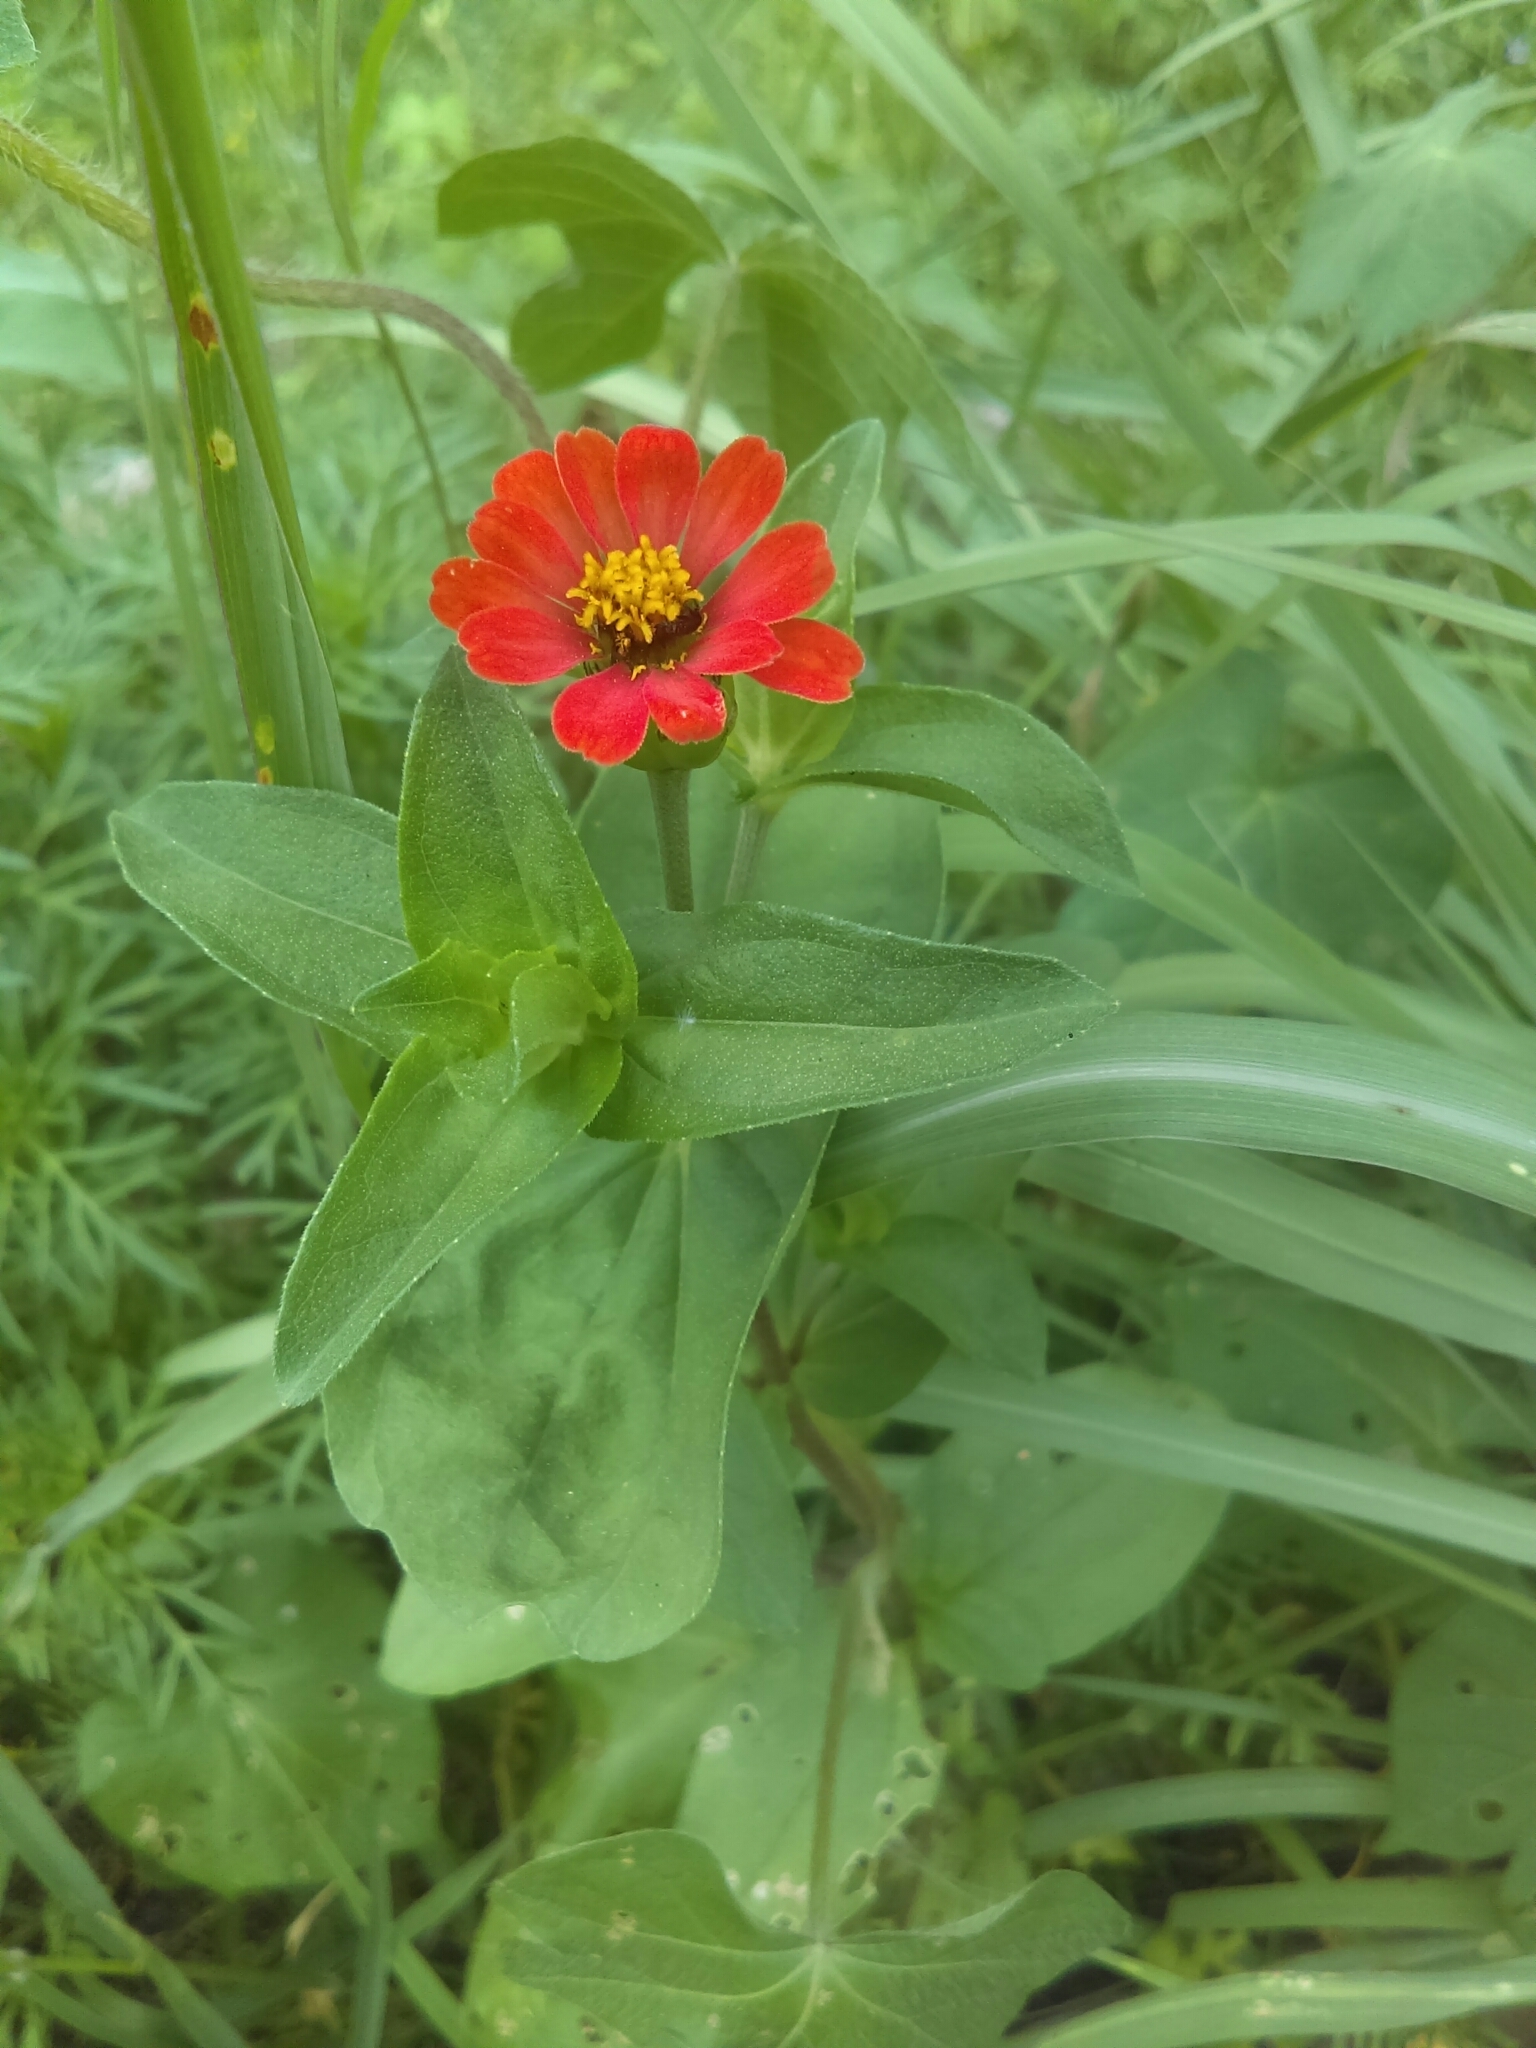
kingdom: Plantae
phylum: Tracheophyta
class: Magnoliopsida
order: Asterales
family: Asteraceae
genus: Zinnia
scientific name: Zinnia peruviana
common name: Peruvian zinnia
